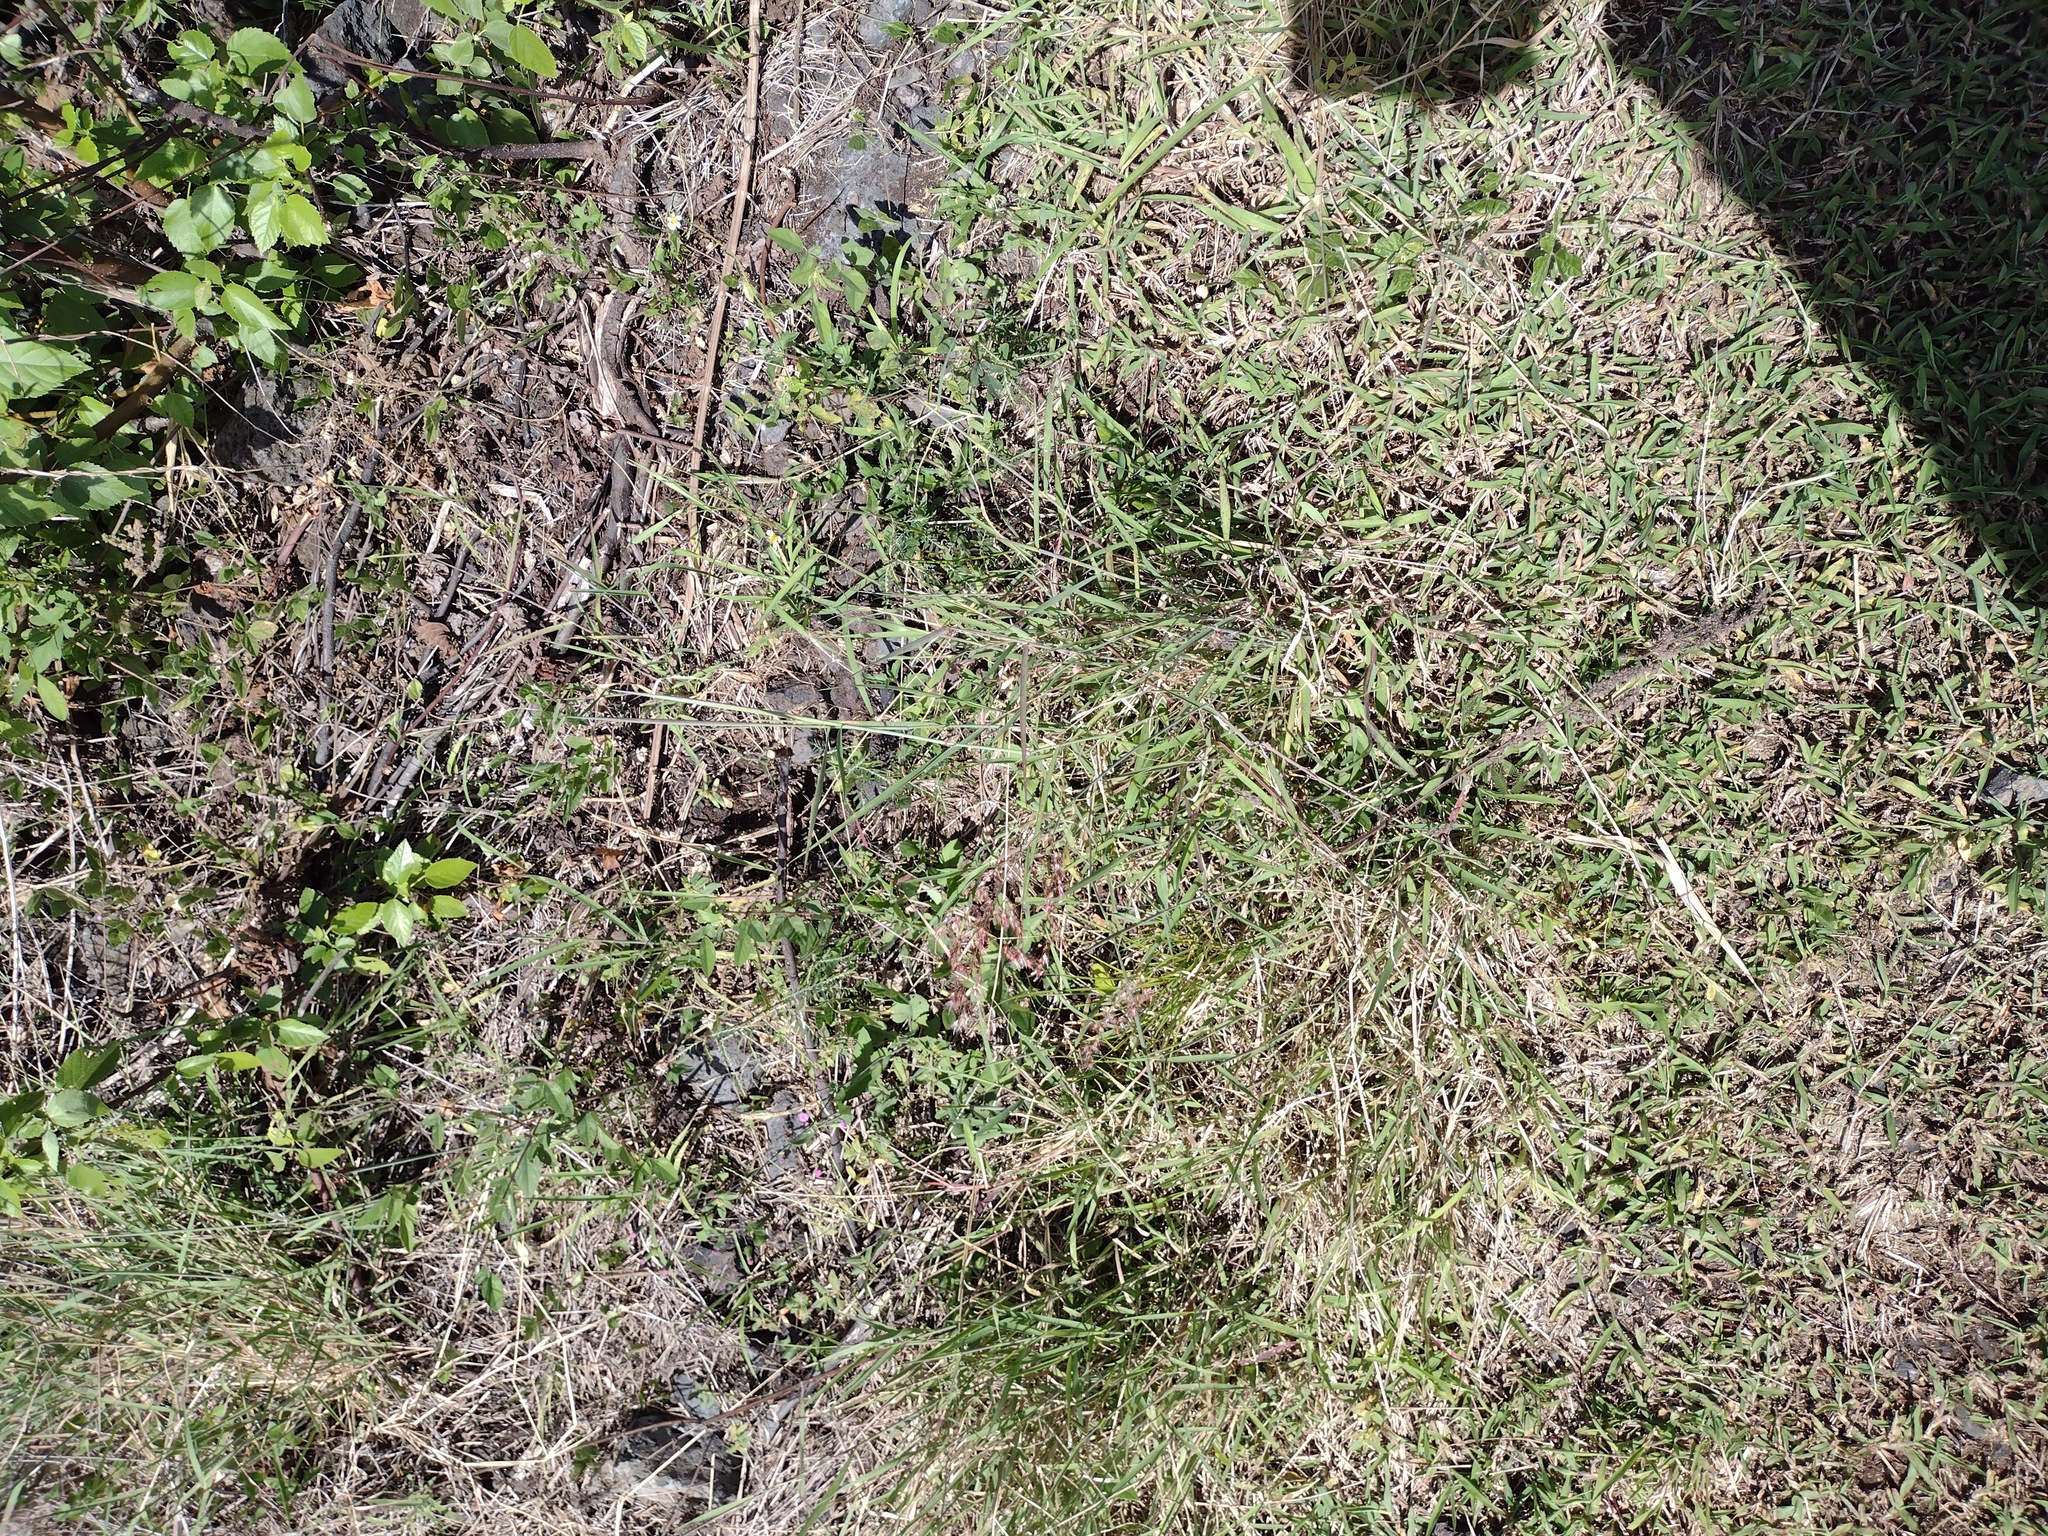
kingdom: Plantae
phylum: Tracheophyta
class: Liliopsida
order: Poales
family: Poaceae
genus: Melinis
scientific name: Melinis minutiflora
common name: Molassesgrass
